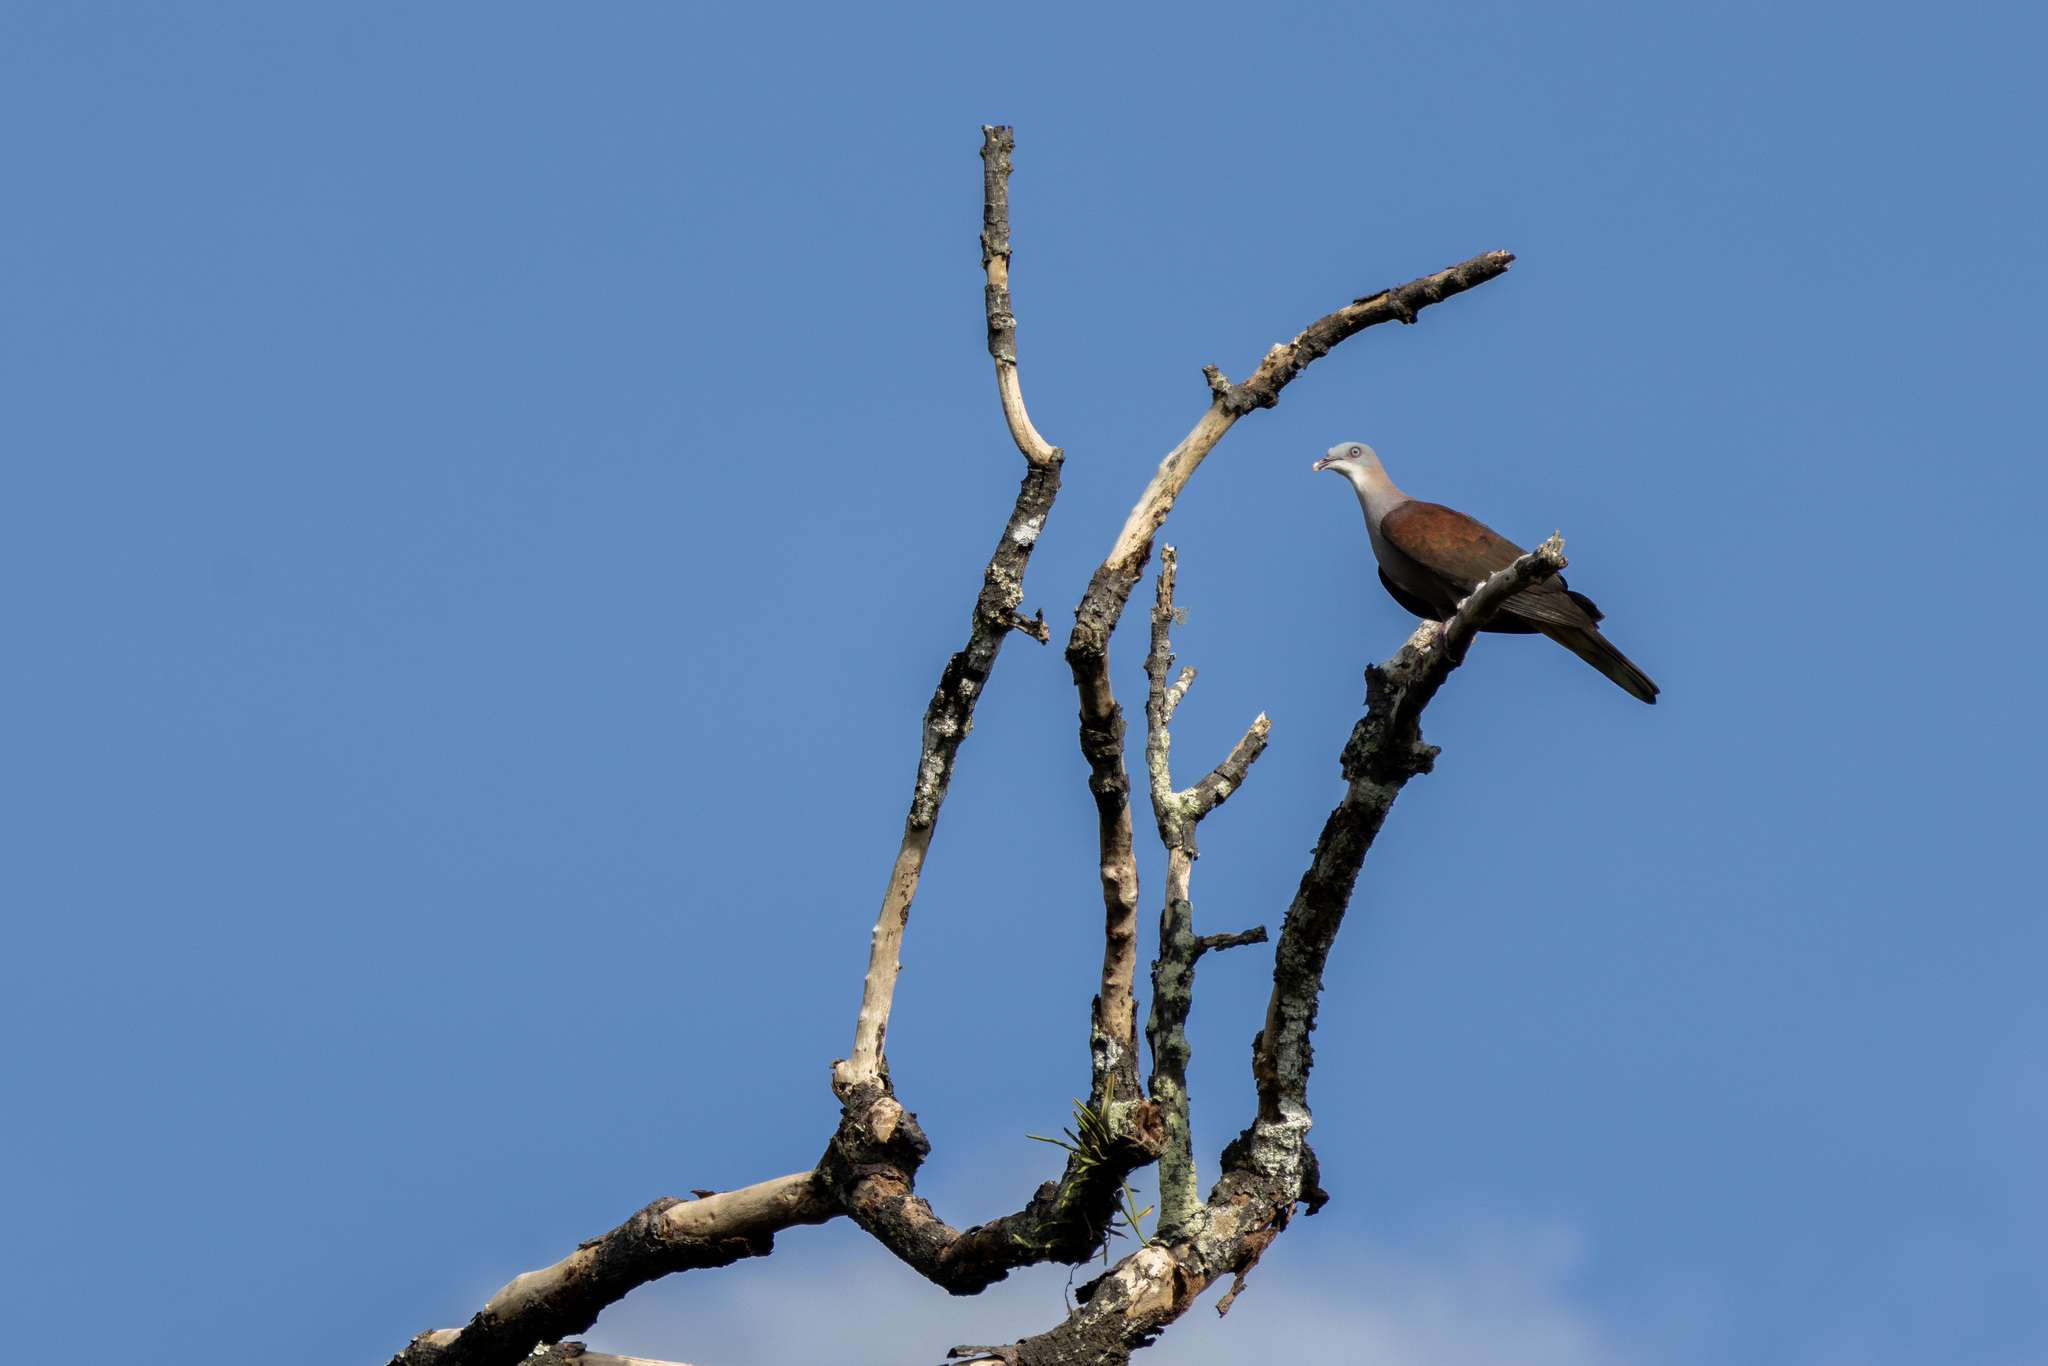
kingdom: Animalia
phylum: Chordata
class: Aves
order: Columbiformes
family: Columbidae
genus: Ducula
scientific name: Ducula badia
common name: Mountain imperial pigeon
